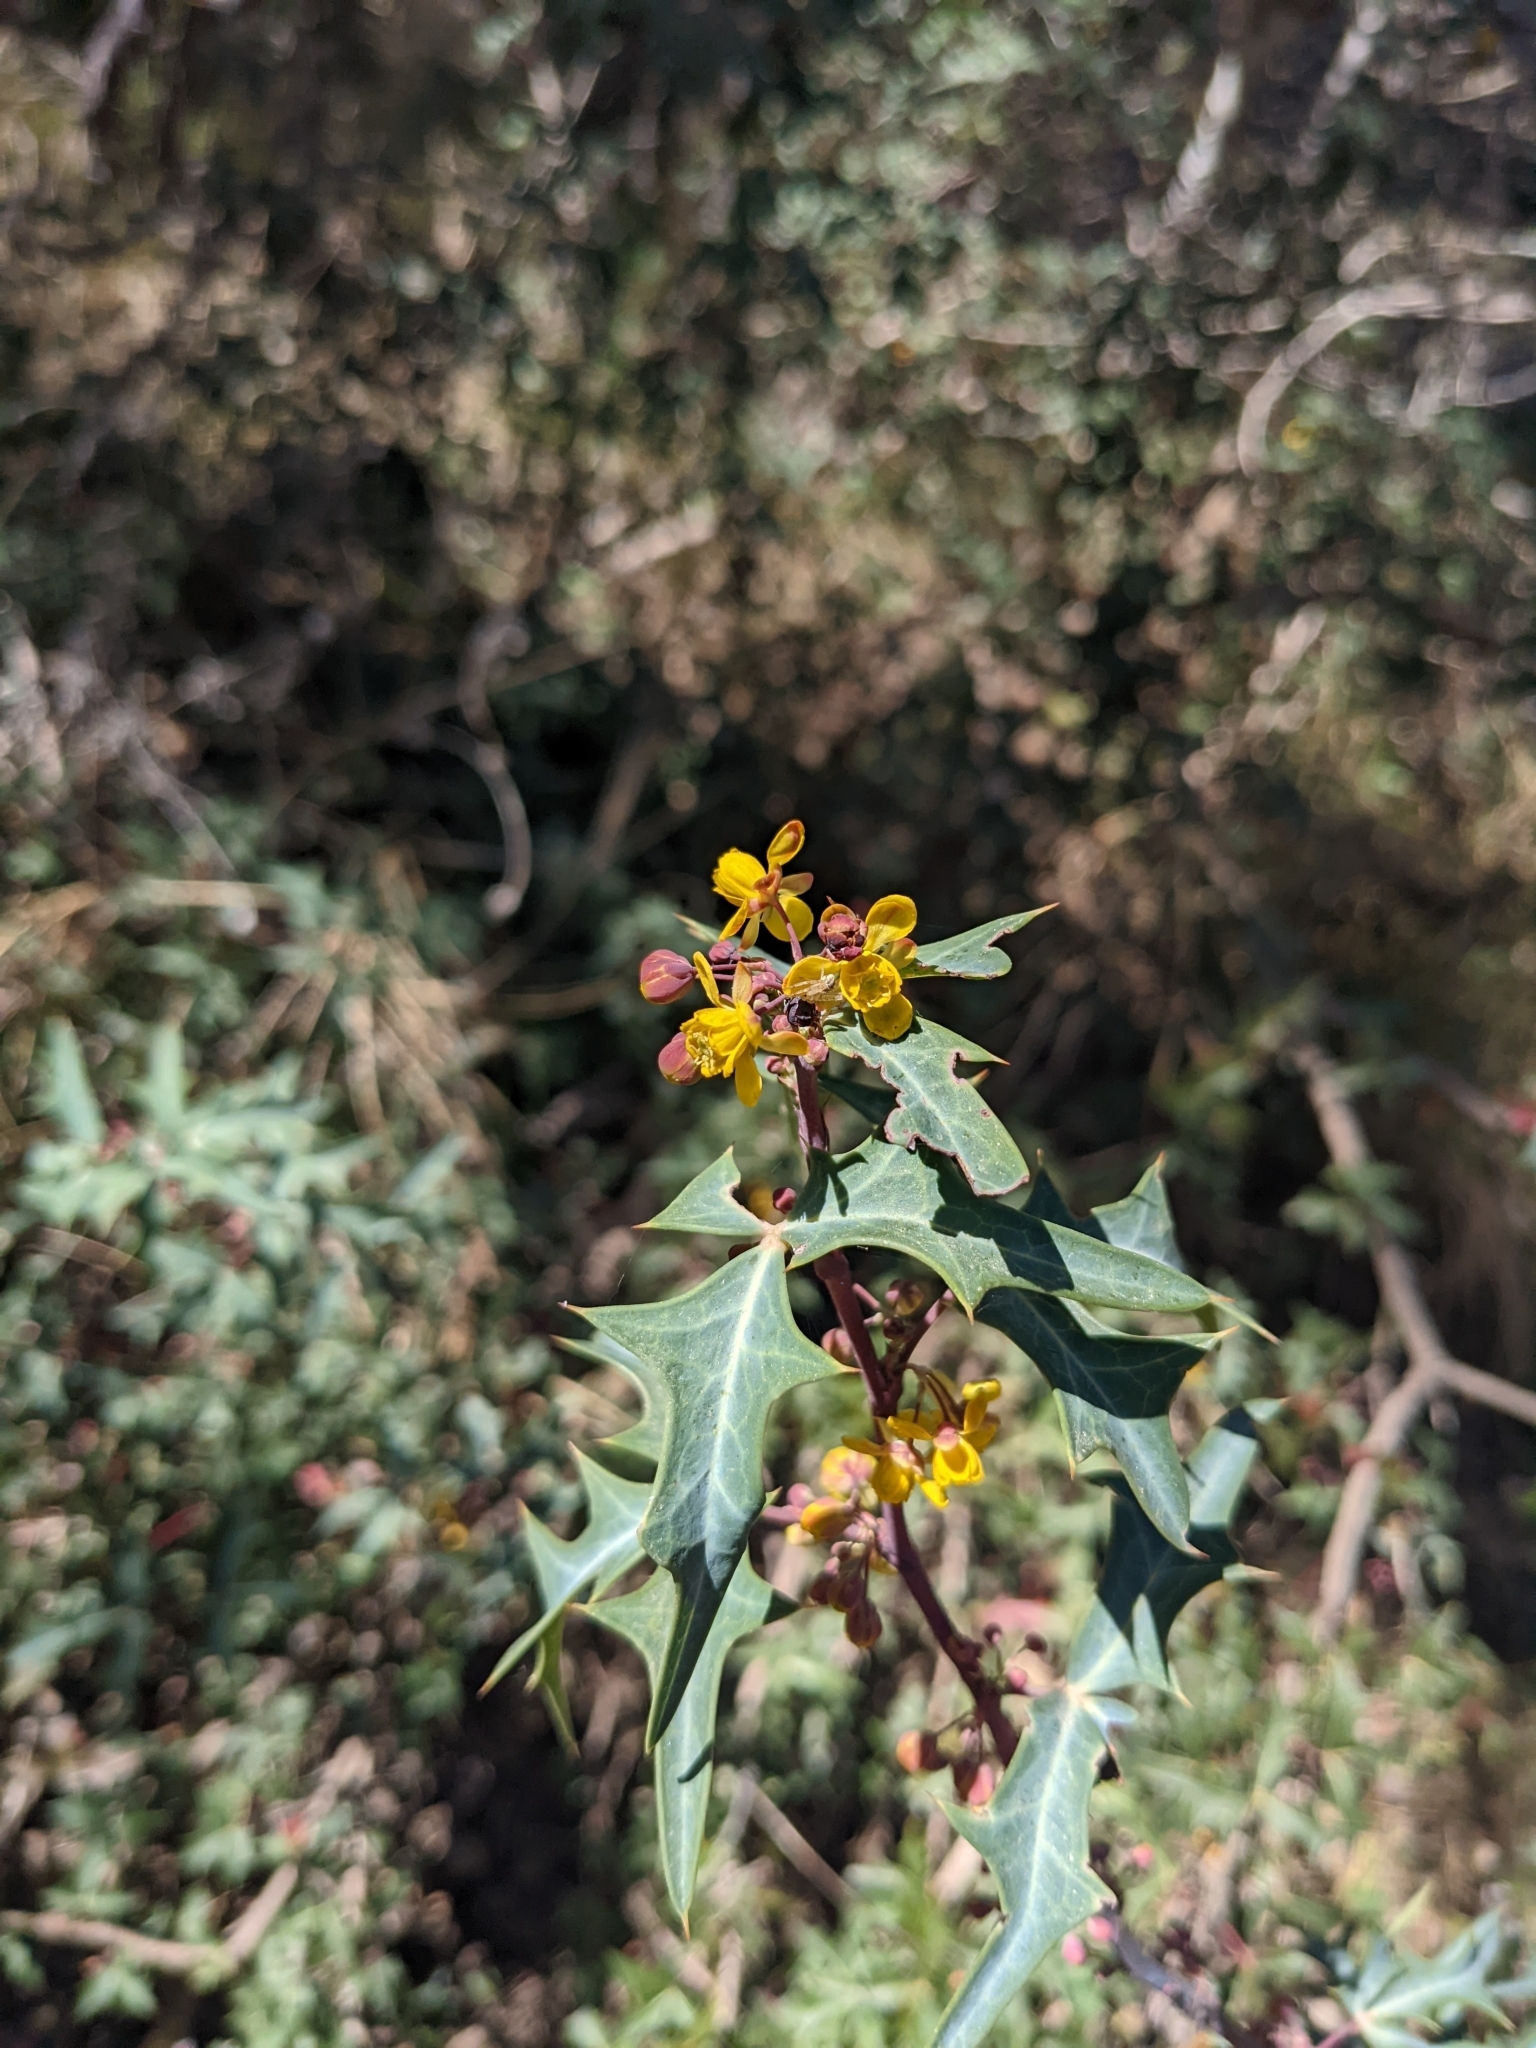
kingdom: Plantae
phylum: Tracheophyta
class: Magnoliopsida
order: Ranunculales
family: Berberidaceae
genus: Alloberberis
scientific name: Alloberberis trifoliolata
